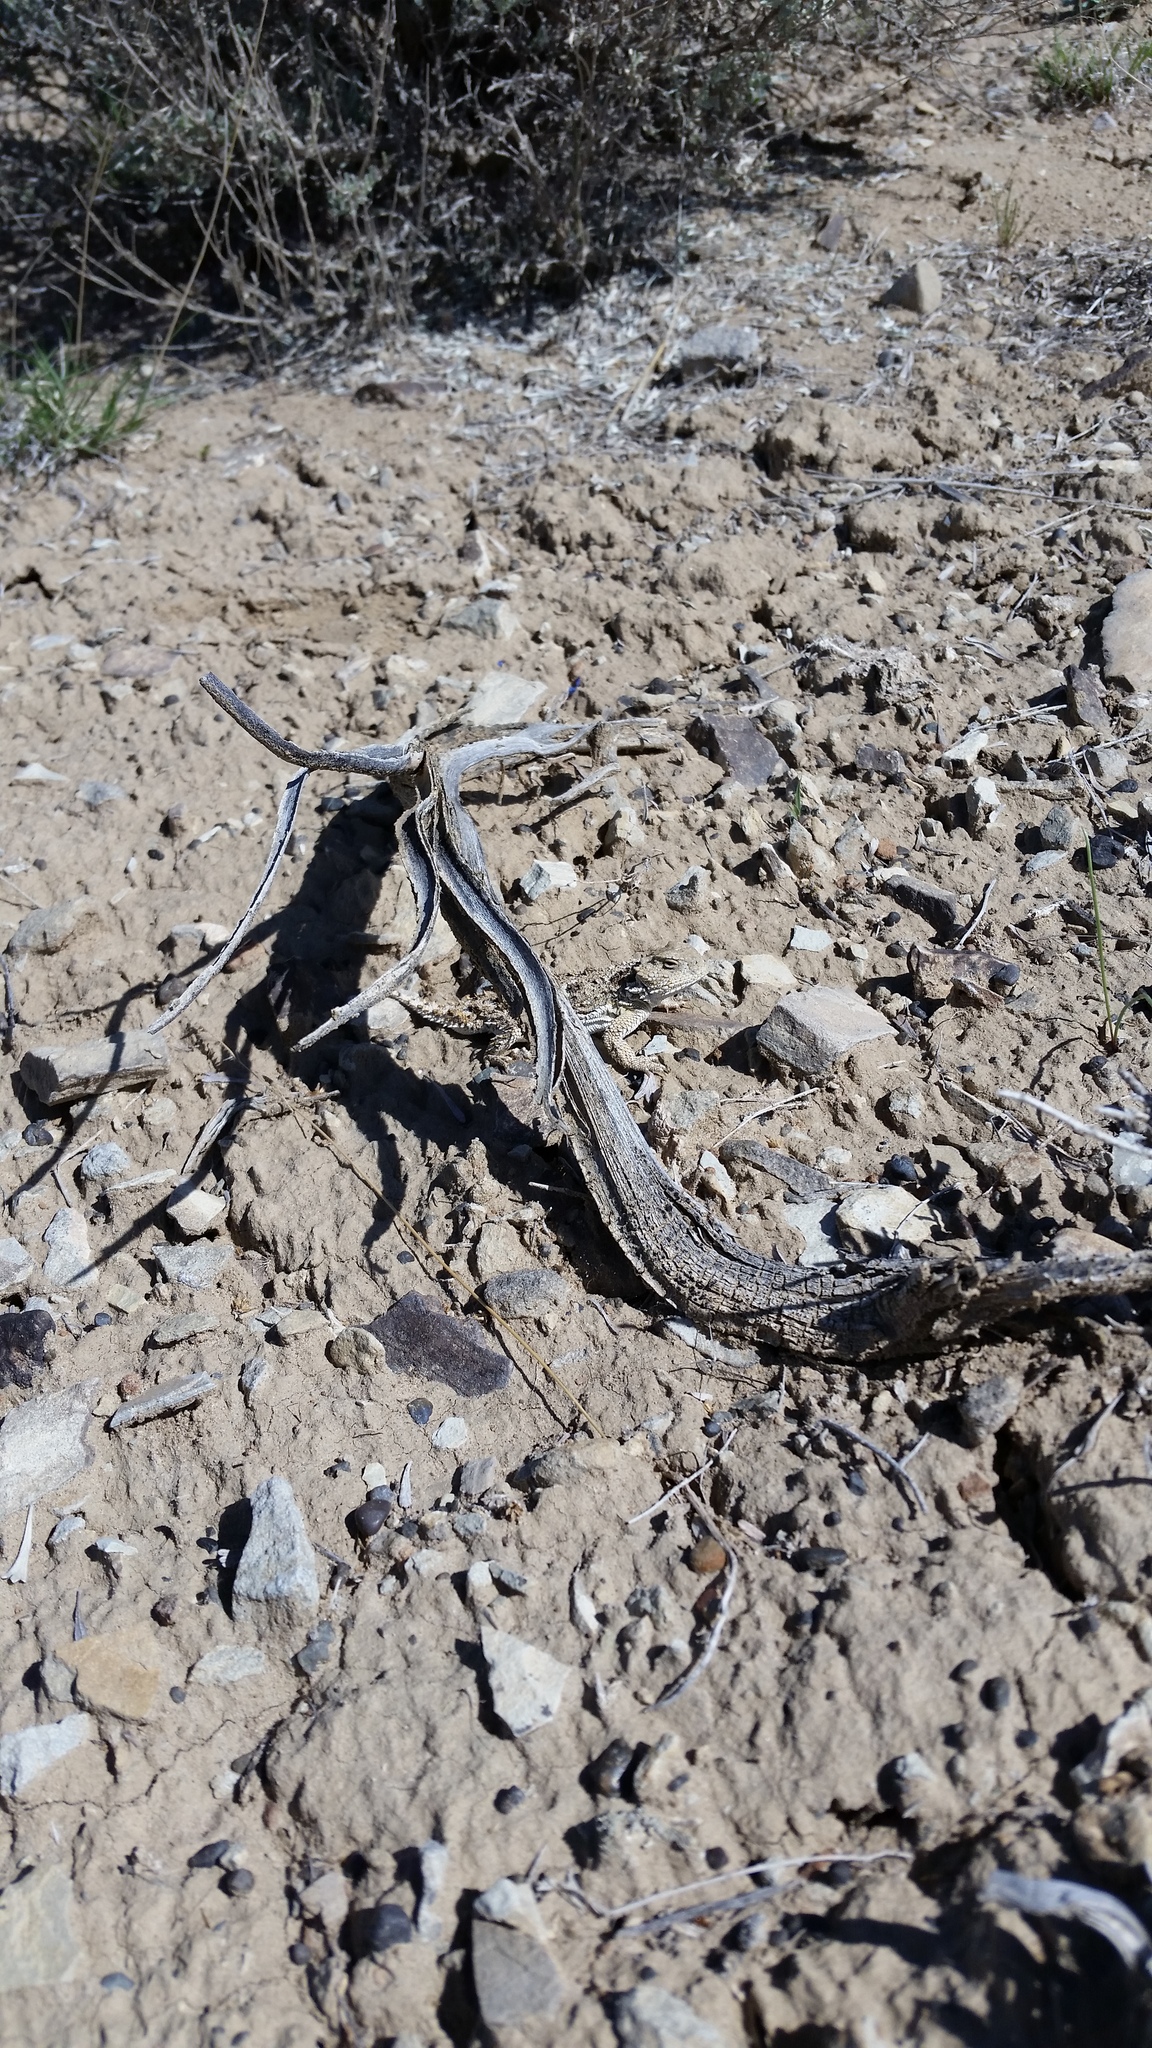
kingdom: Animalia
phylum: Chordata
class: Squamata
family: Phrynosomatidae
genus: Phrynosoma
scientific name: Phrynosoma hernandesi
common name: Greater short-horned lizard
